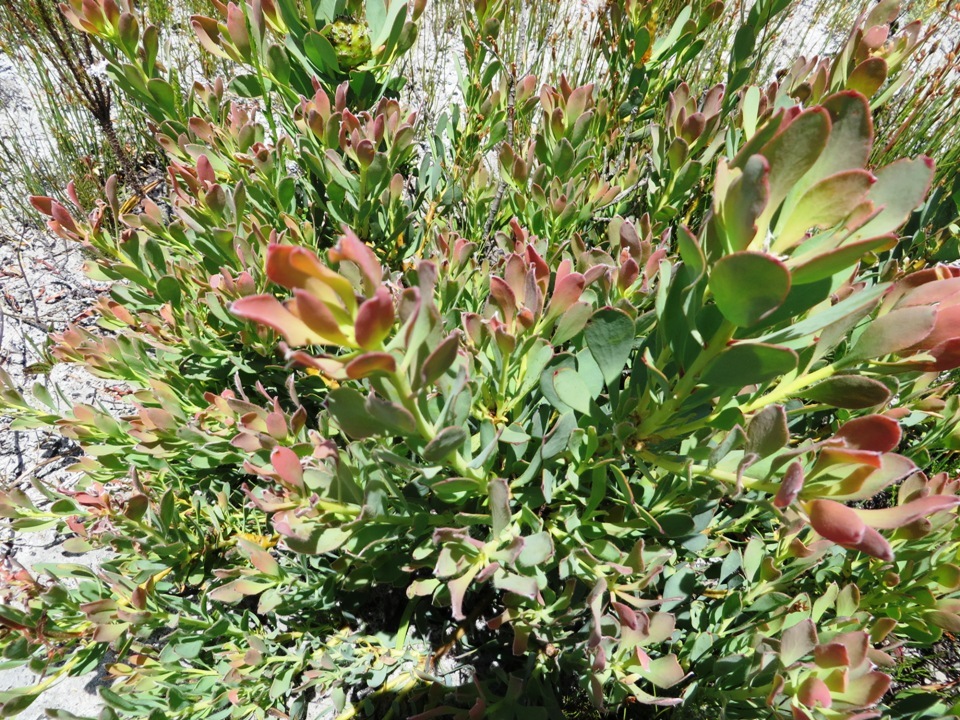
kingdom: Plantae
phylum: Tracheophyta
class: Magnoliopsida
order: Proteales
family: Proteaceae
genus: Leucadendron
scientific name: Leucadendron arcuatum
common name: Red-edge conebush
